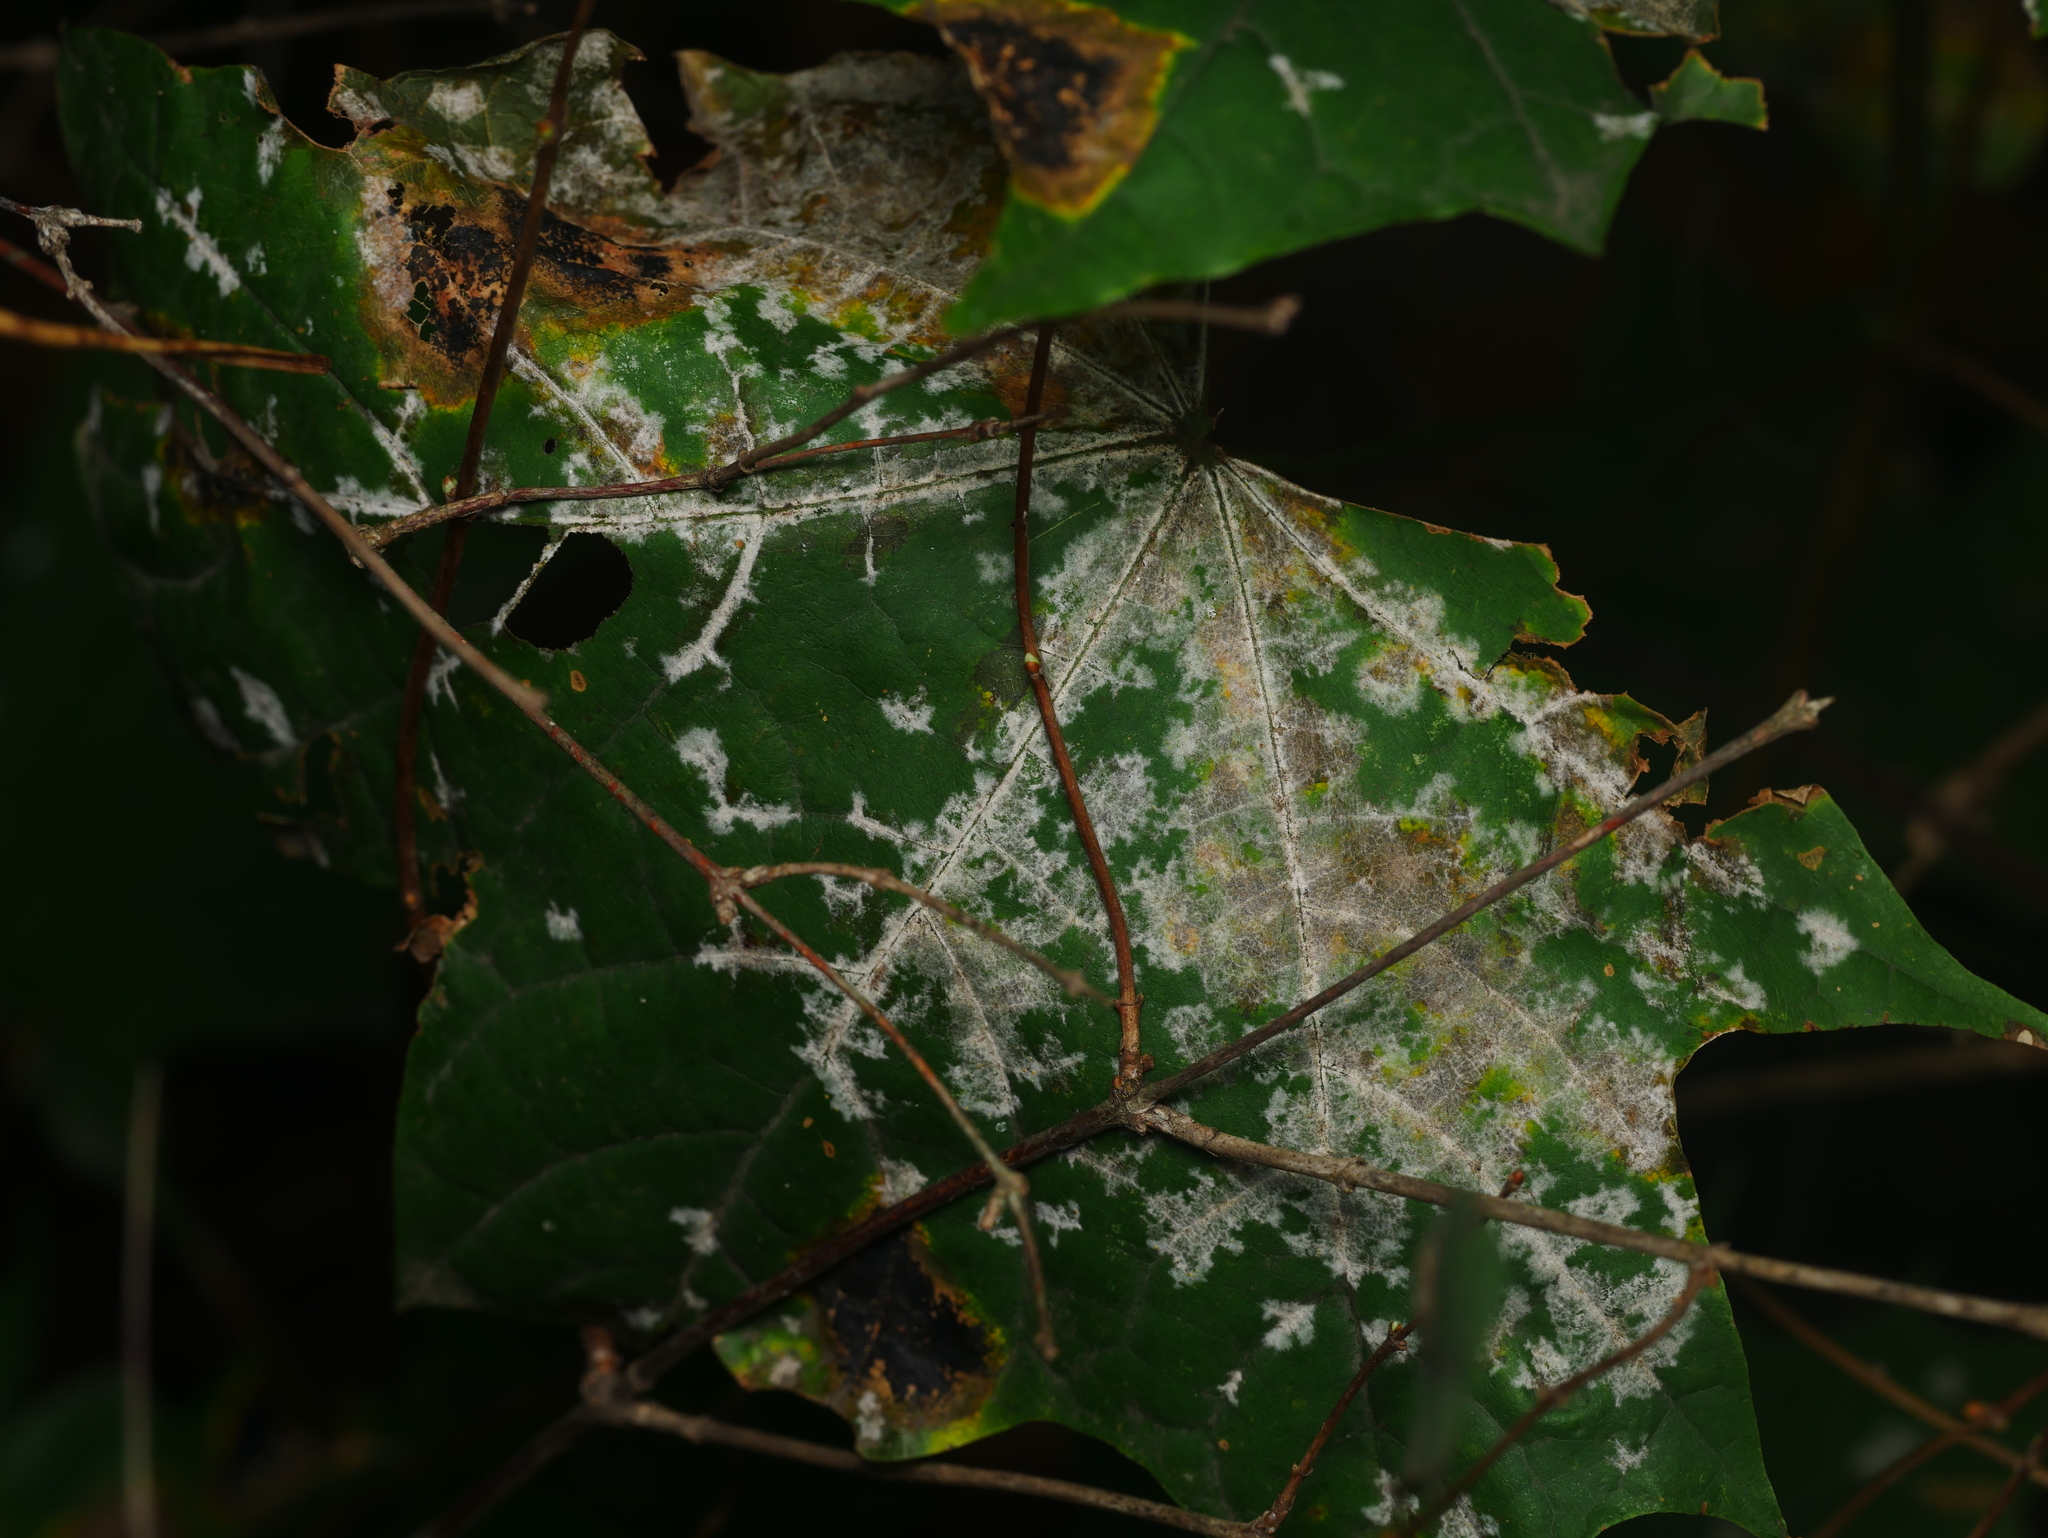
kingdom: Fungi
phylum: Ascomycota
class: Leotiomycetes
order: Helotiales
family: Erysiphaceae
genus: Sawadaea
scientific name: Sawadaea tulasnei
